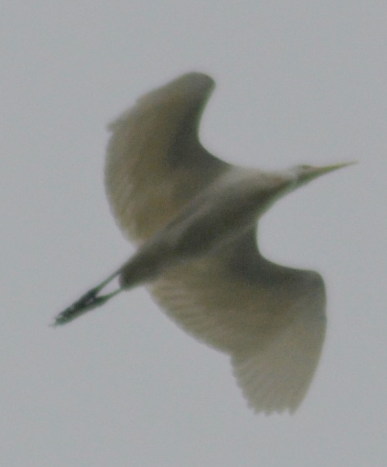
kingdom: Animalia
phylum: Chordata
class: Aves
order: Pelecaniformes
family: Ardeidae
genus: Bubulcus
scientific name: Bubulcus ibis
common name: Cattle egret
